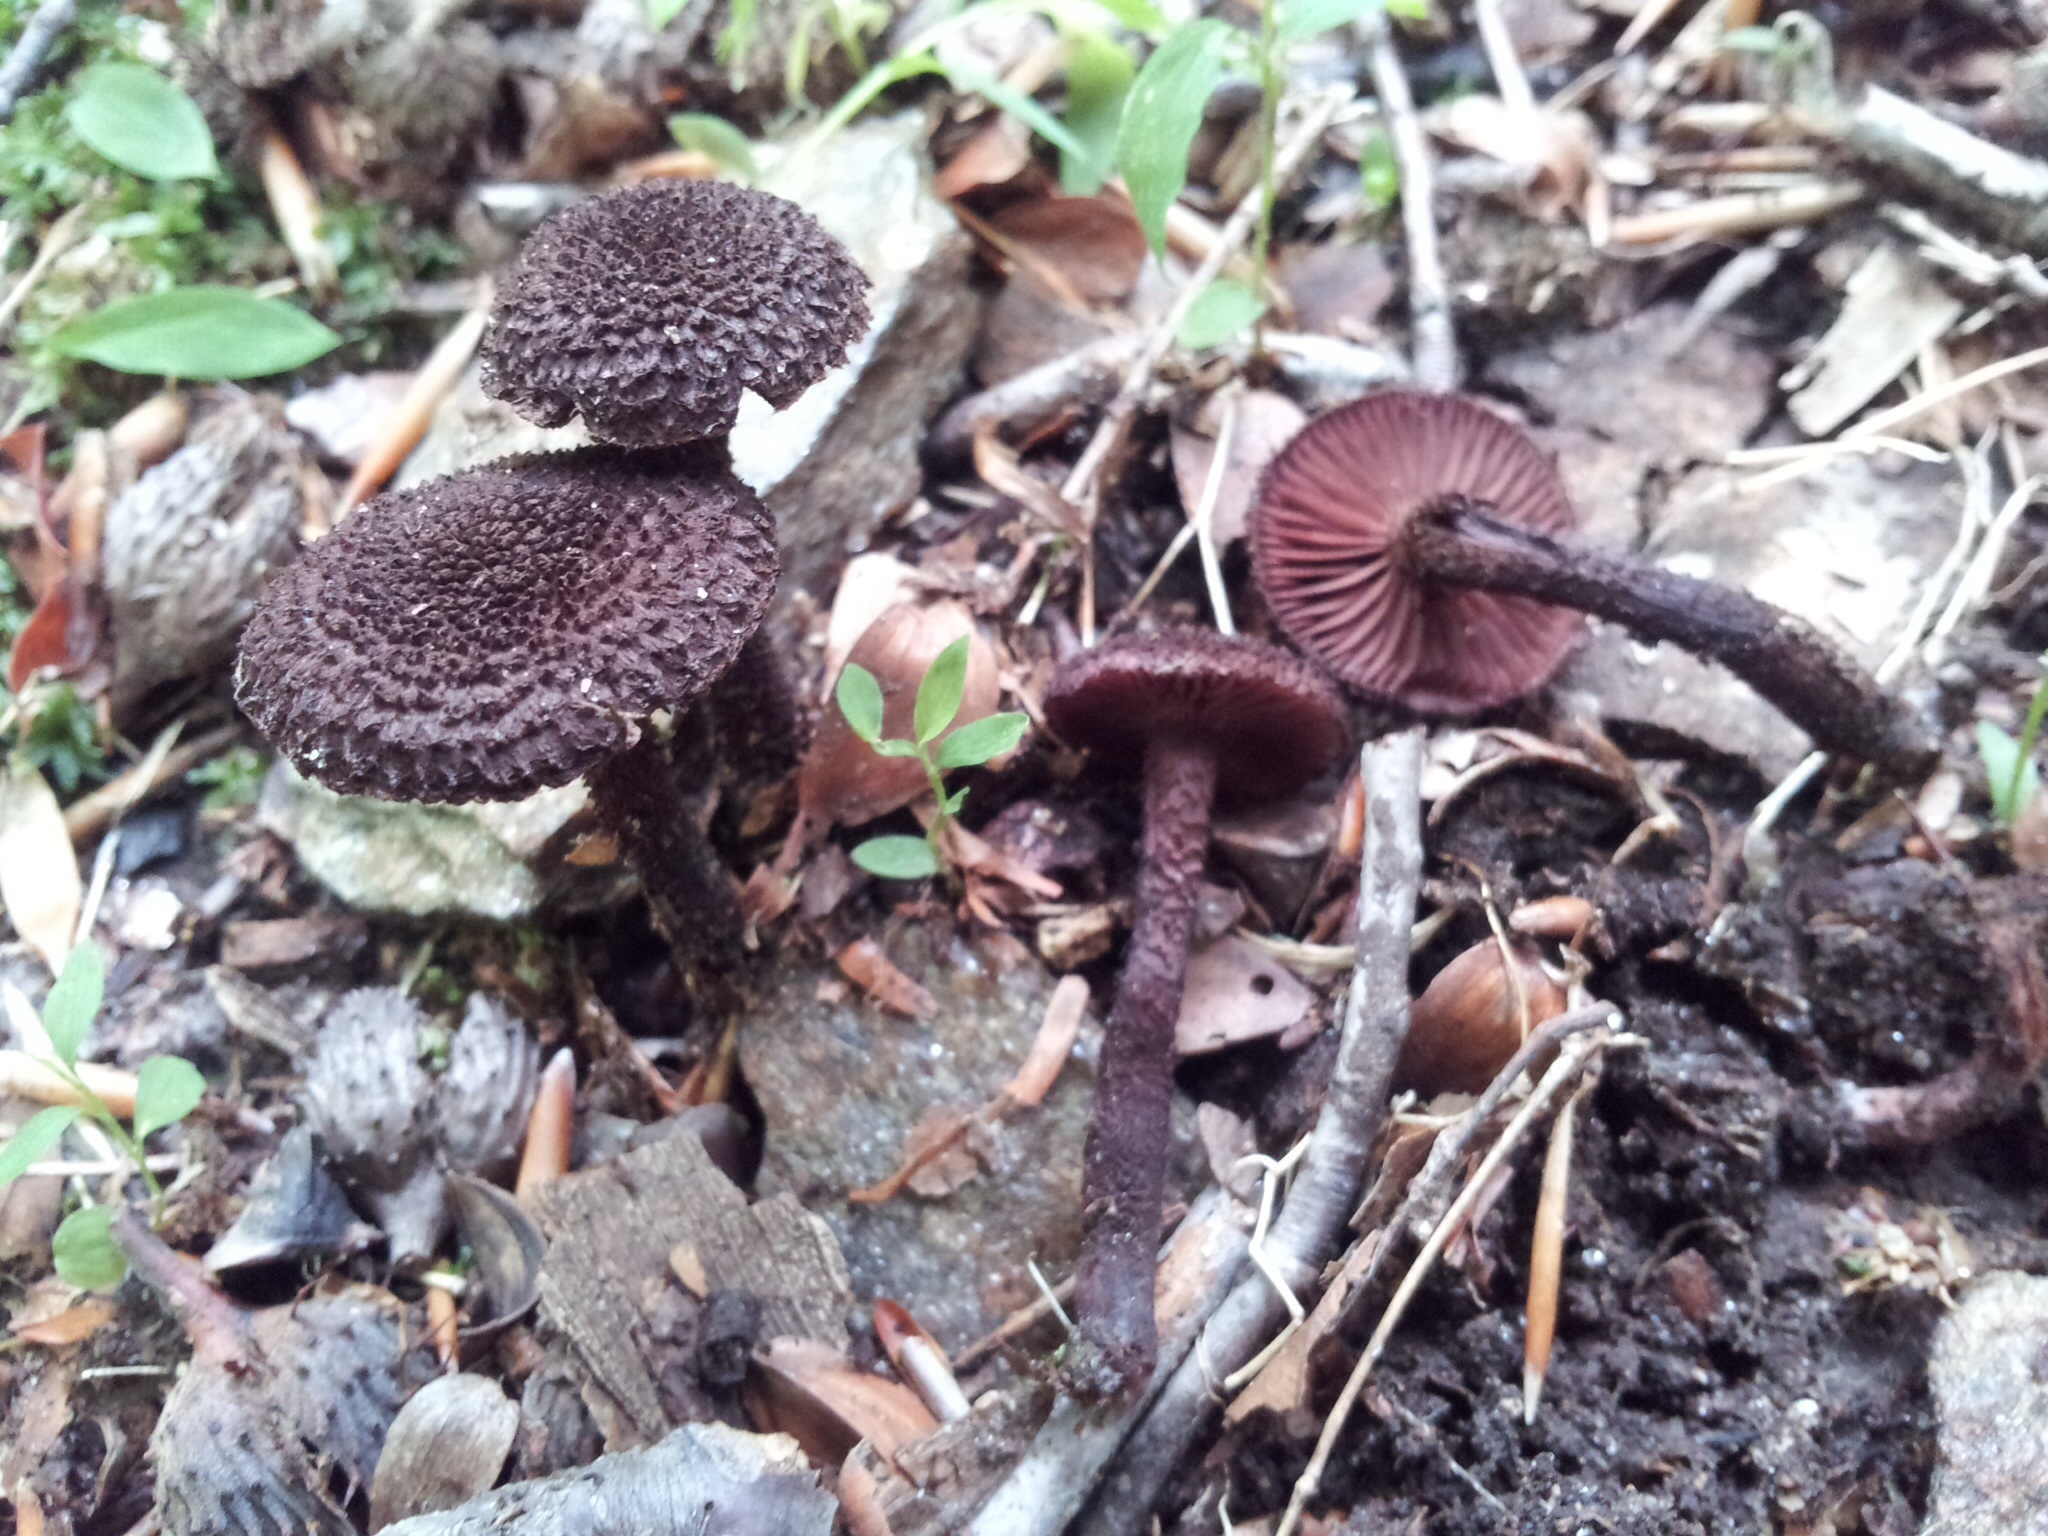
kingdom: Fungi
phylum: Basidiomycota
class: Agaricomycetes
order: Agaricales
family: Inocybaceae
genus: Inocybe
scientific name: Inocybe tahquamenonensis
